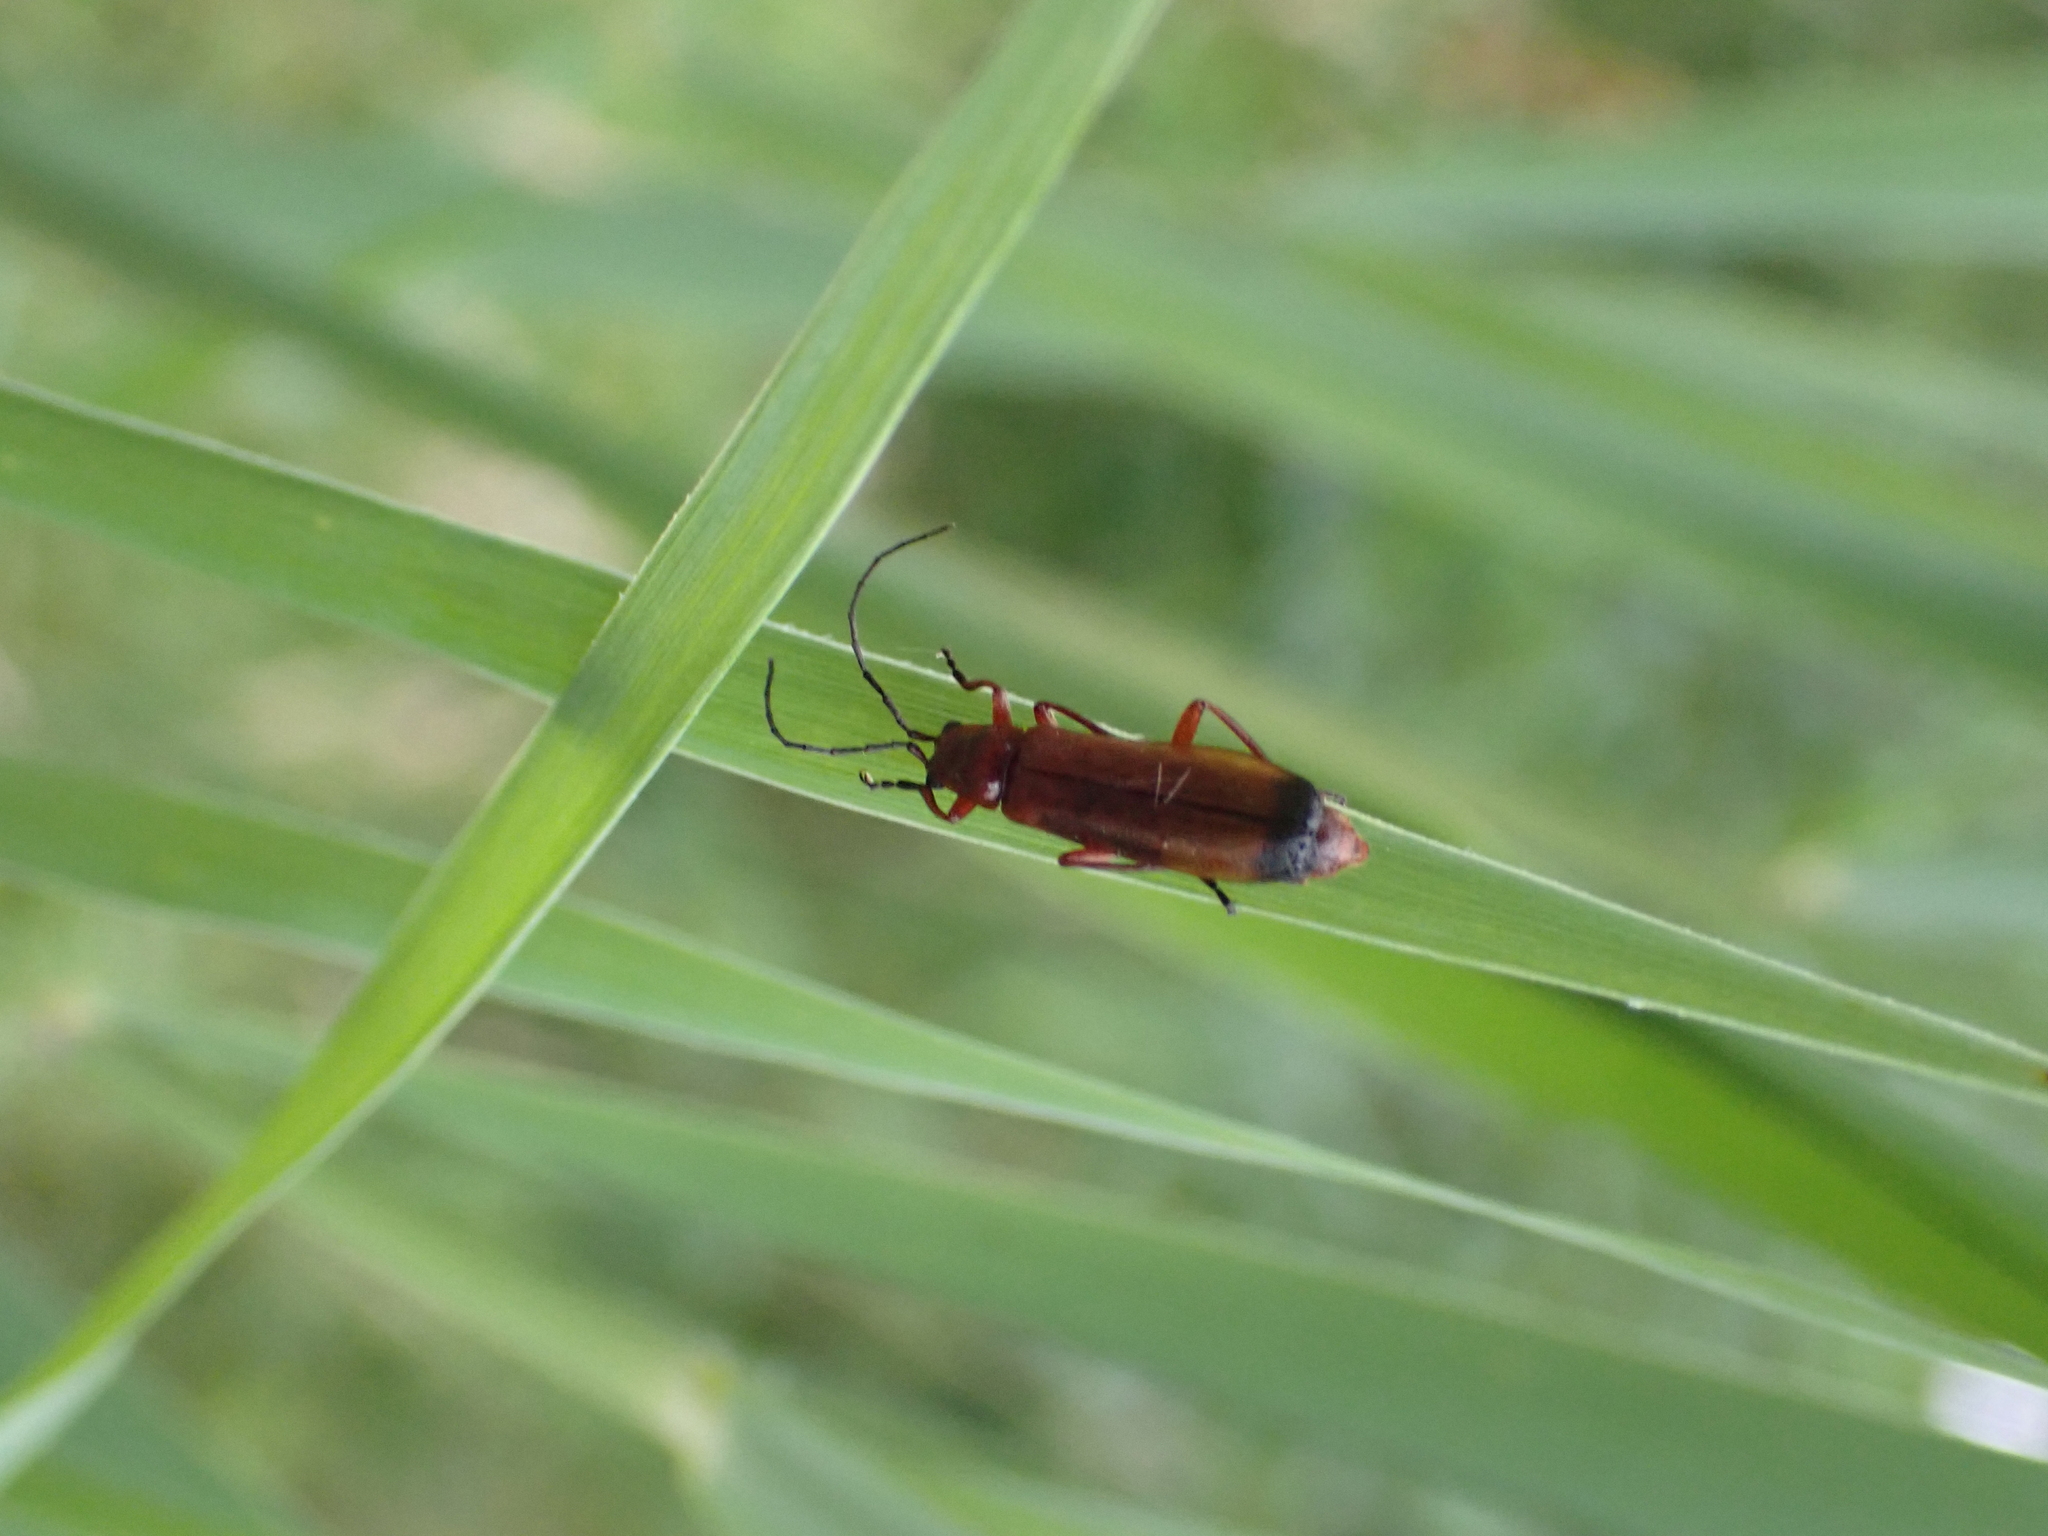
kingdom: Animalia
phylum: Arthropoda
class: Insecta
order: Coleoptera
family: Cantharidae
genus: Rhagonycha
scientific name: Rhagonycha fulva
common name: Common red soldier beetle
